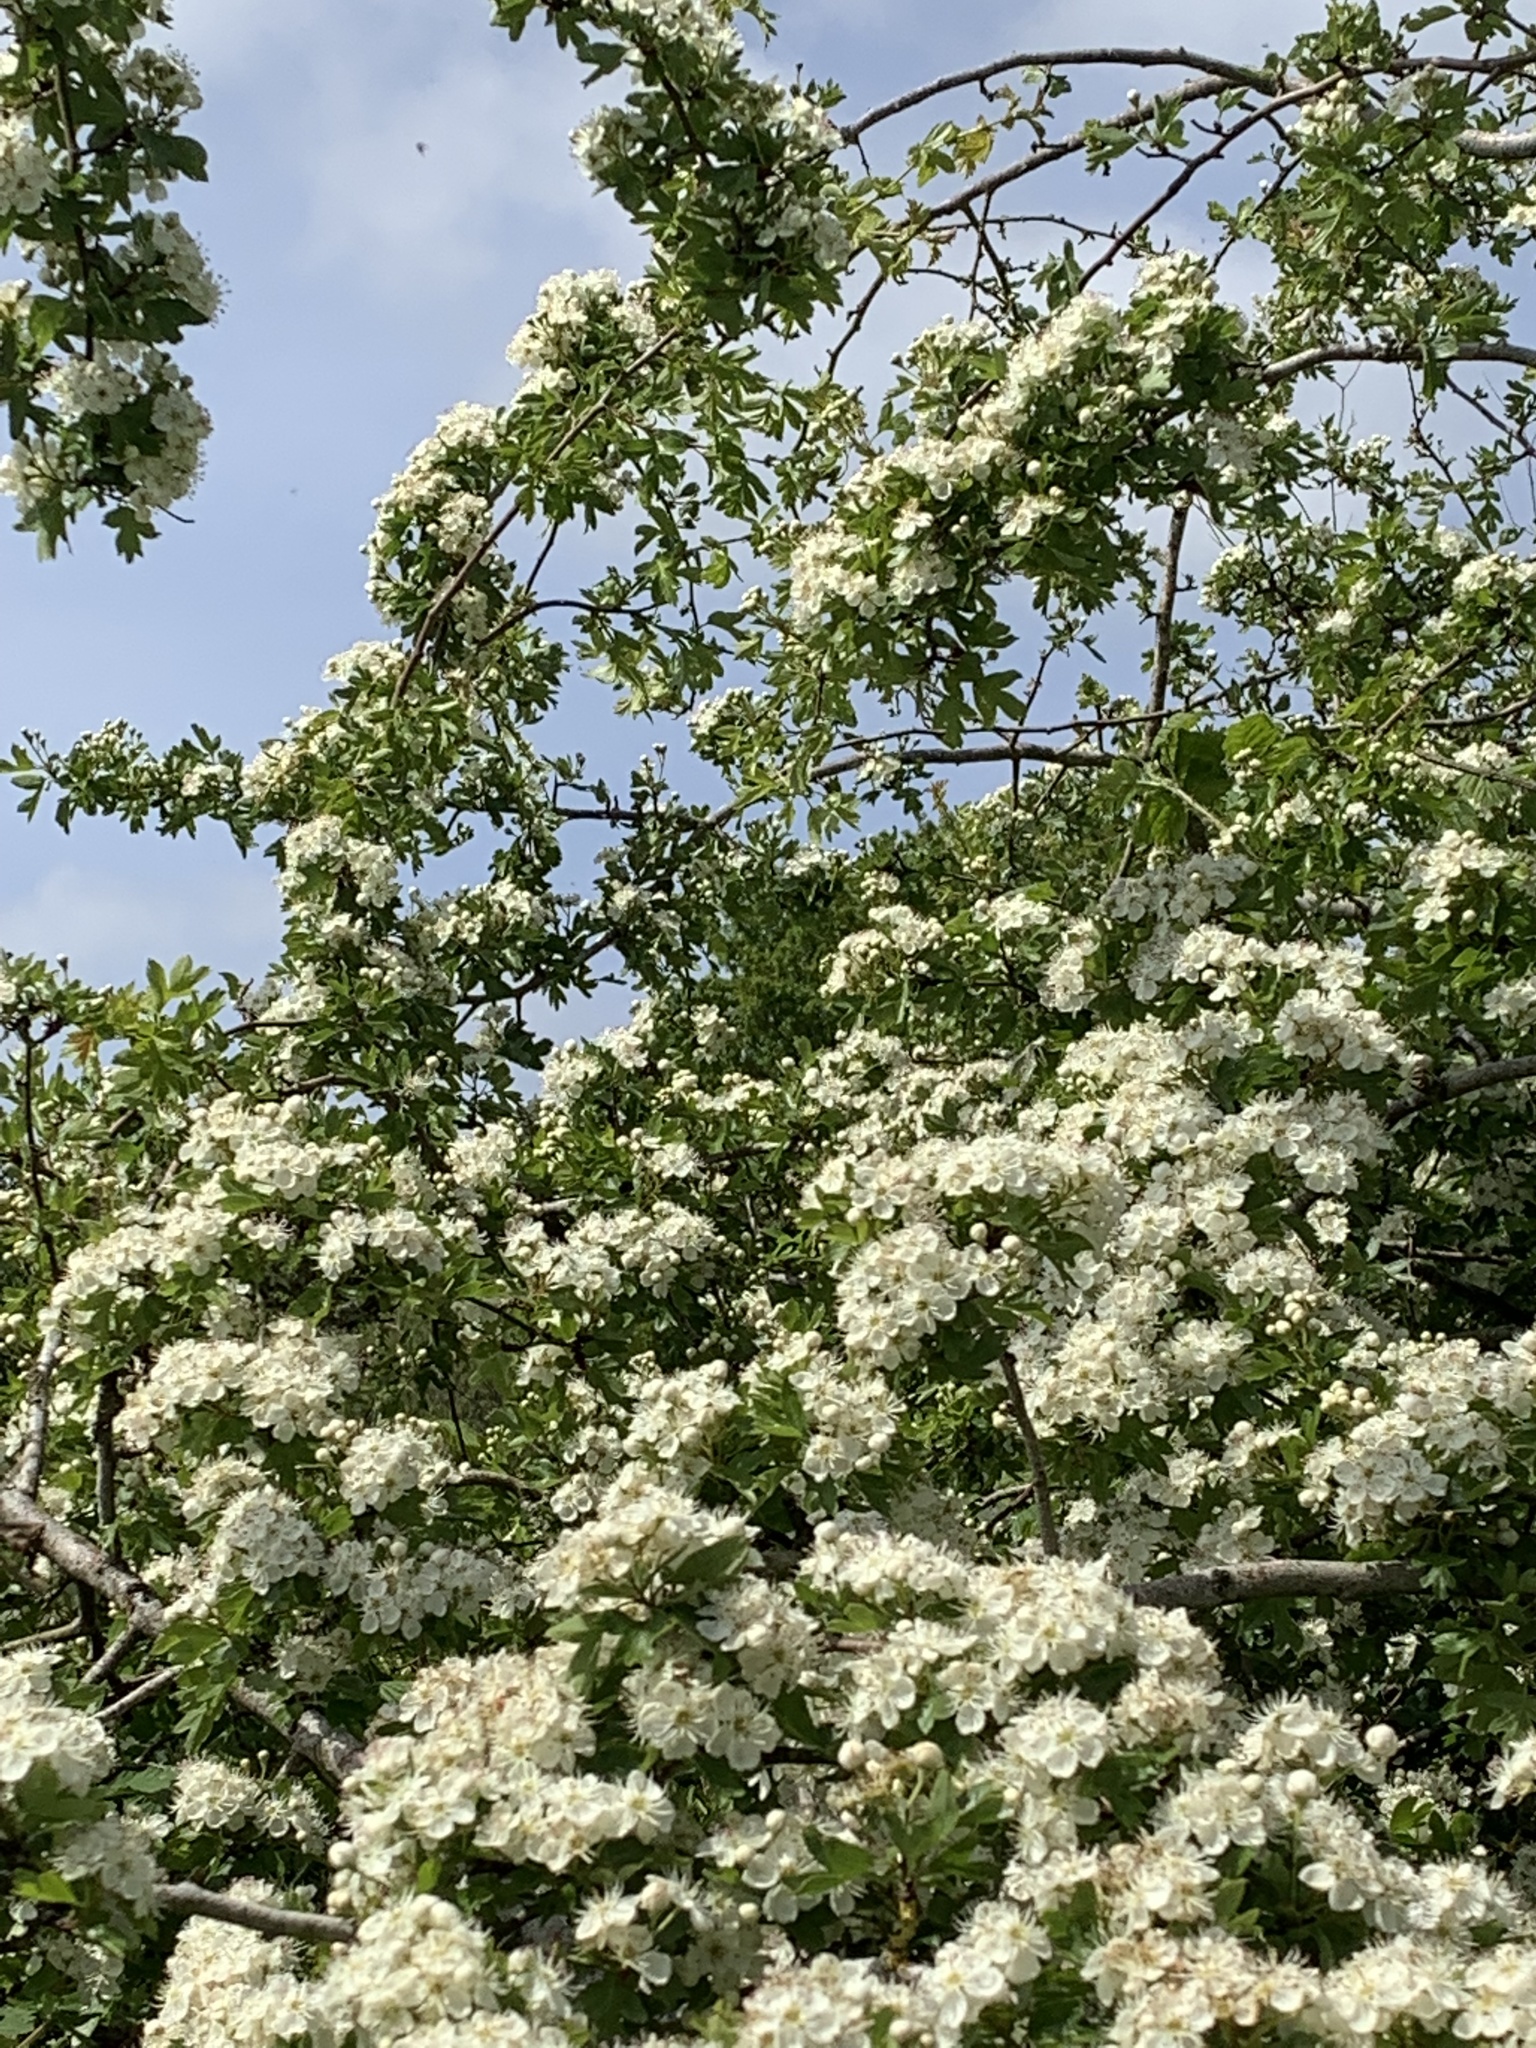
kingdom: Plantae
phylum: Tracheophyta
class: Magnoliopsida
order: Rosales
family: Rosaceae
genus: Crataegus
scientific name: Crataegus monogyna
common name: Hawthorn
